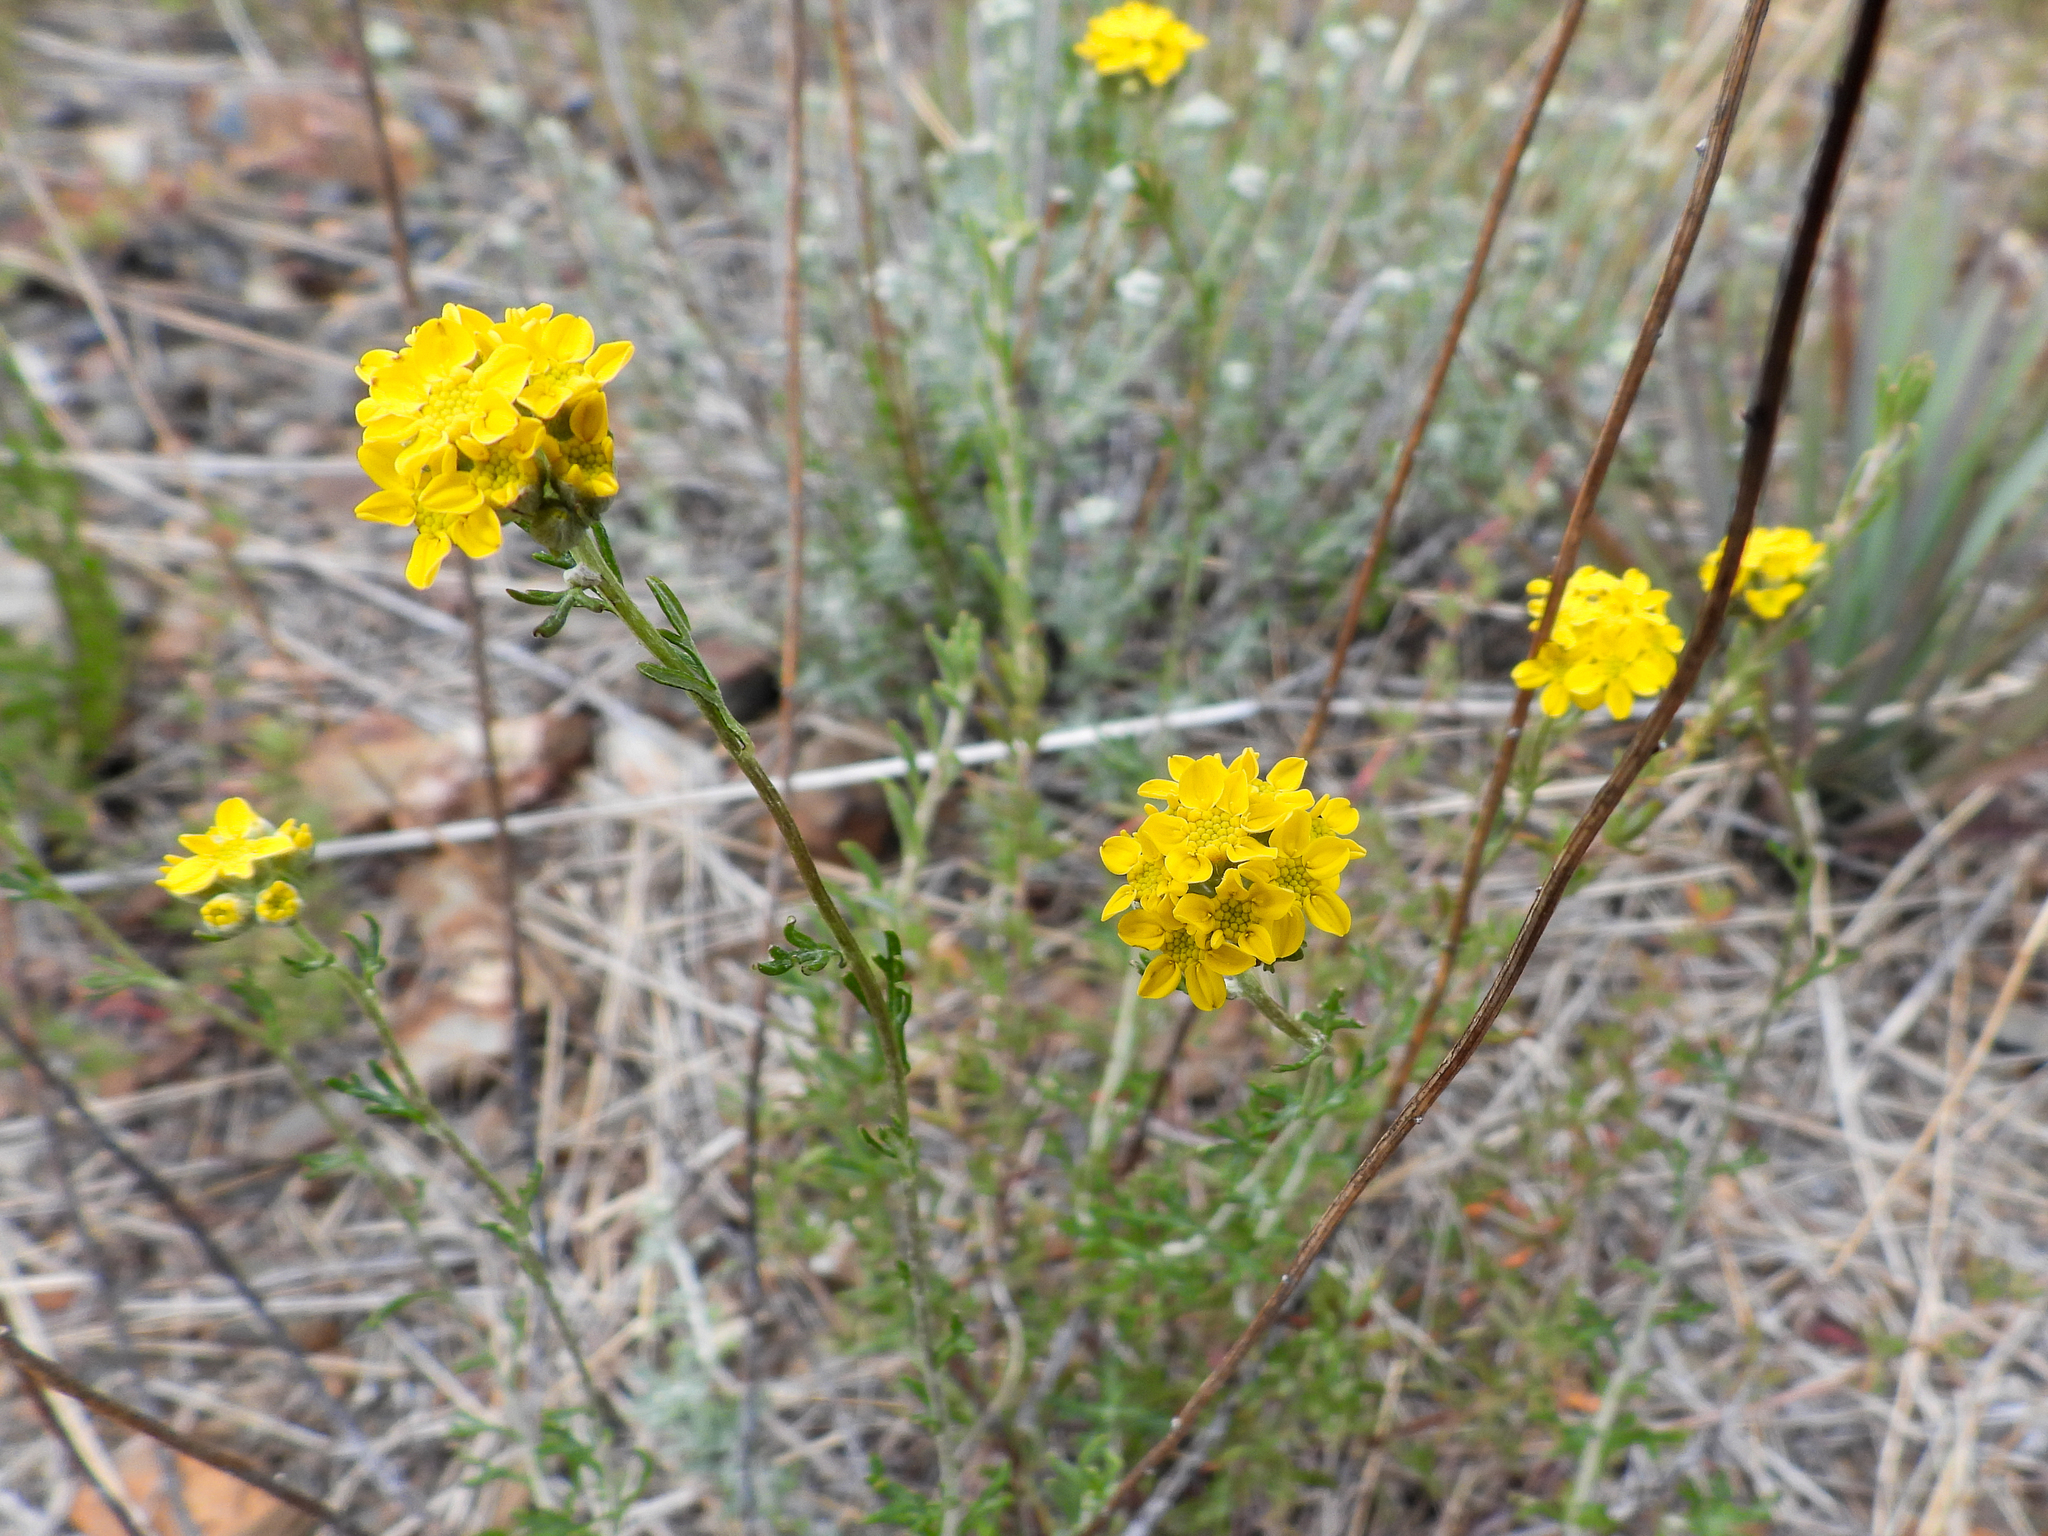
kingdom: Plantae
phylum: Tracheophyta
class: Magnoliopsida
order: Asterales
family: Asteraceae
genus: Eriophyllum
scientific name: Eriophyllum confertiflorum
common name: Golden-yarrow
